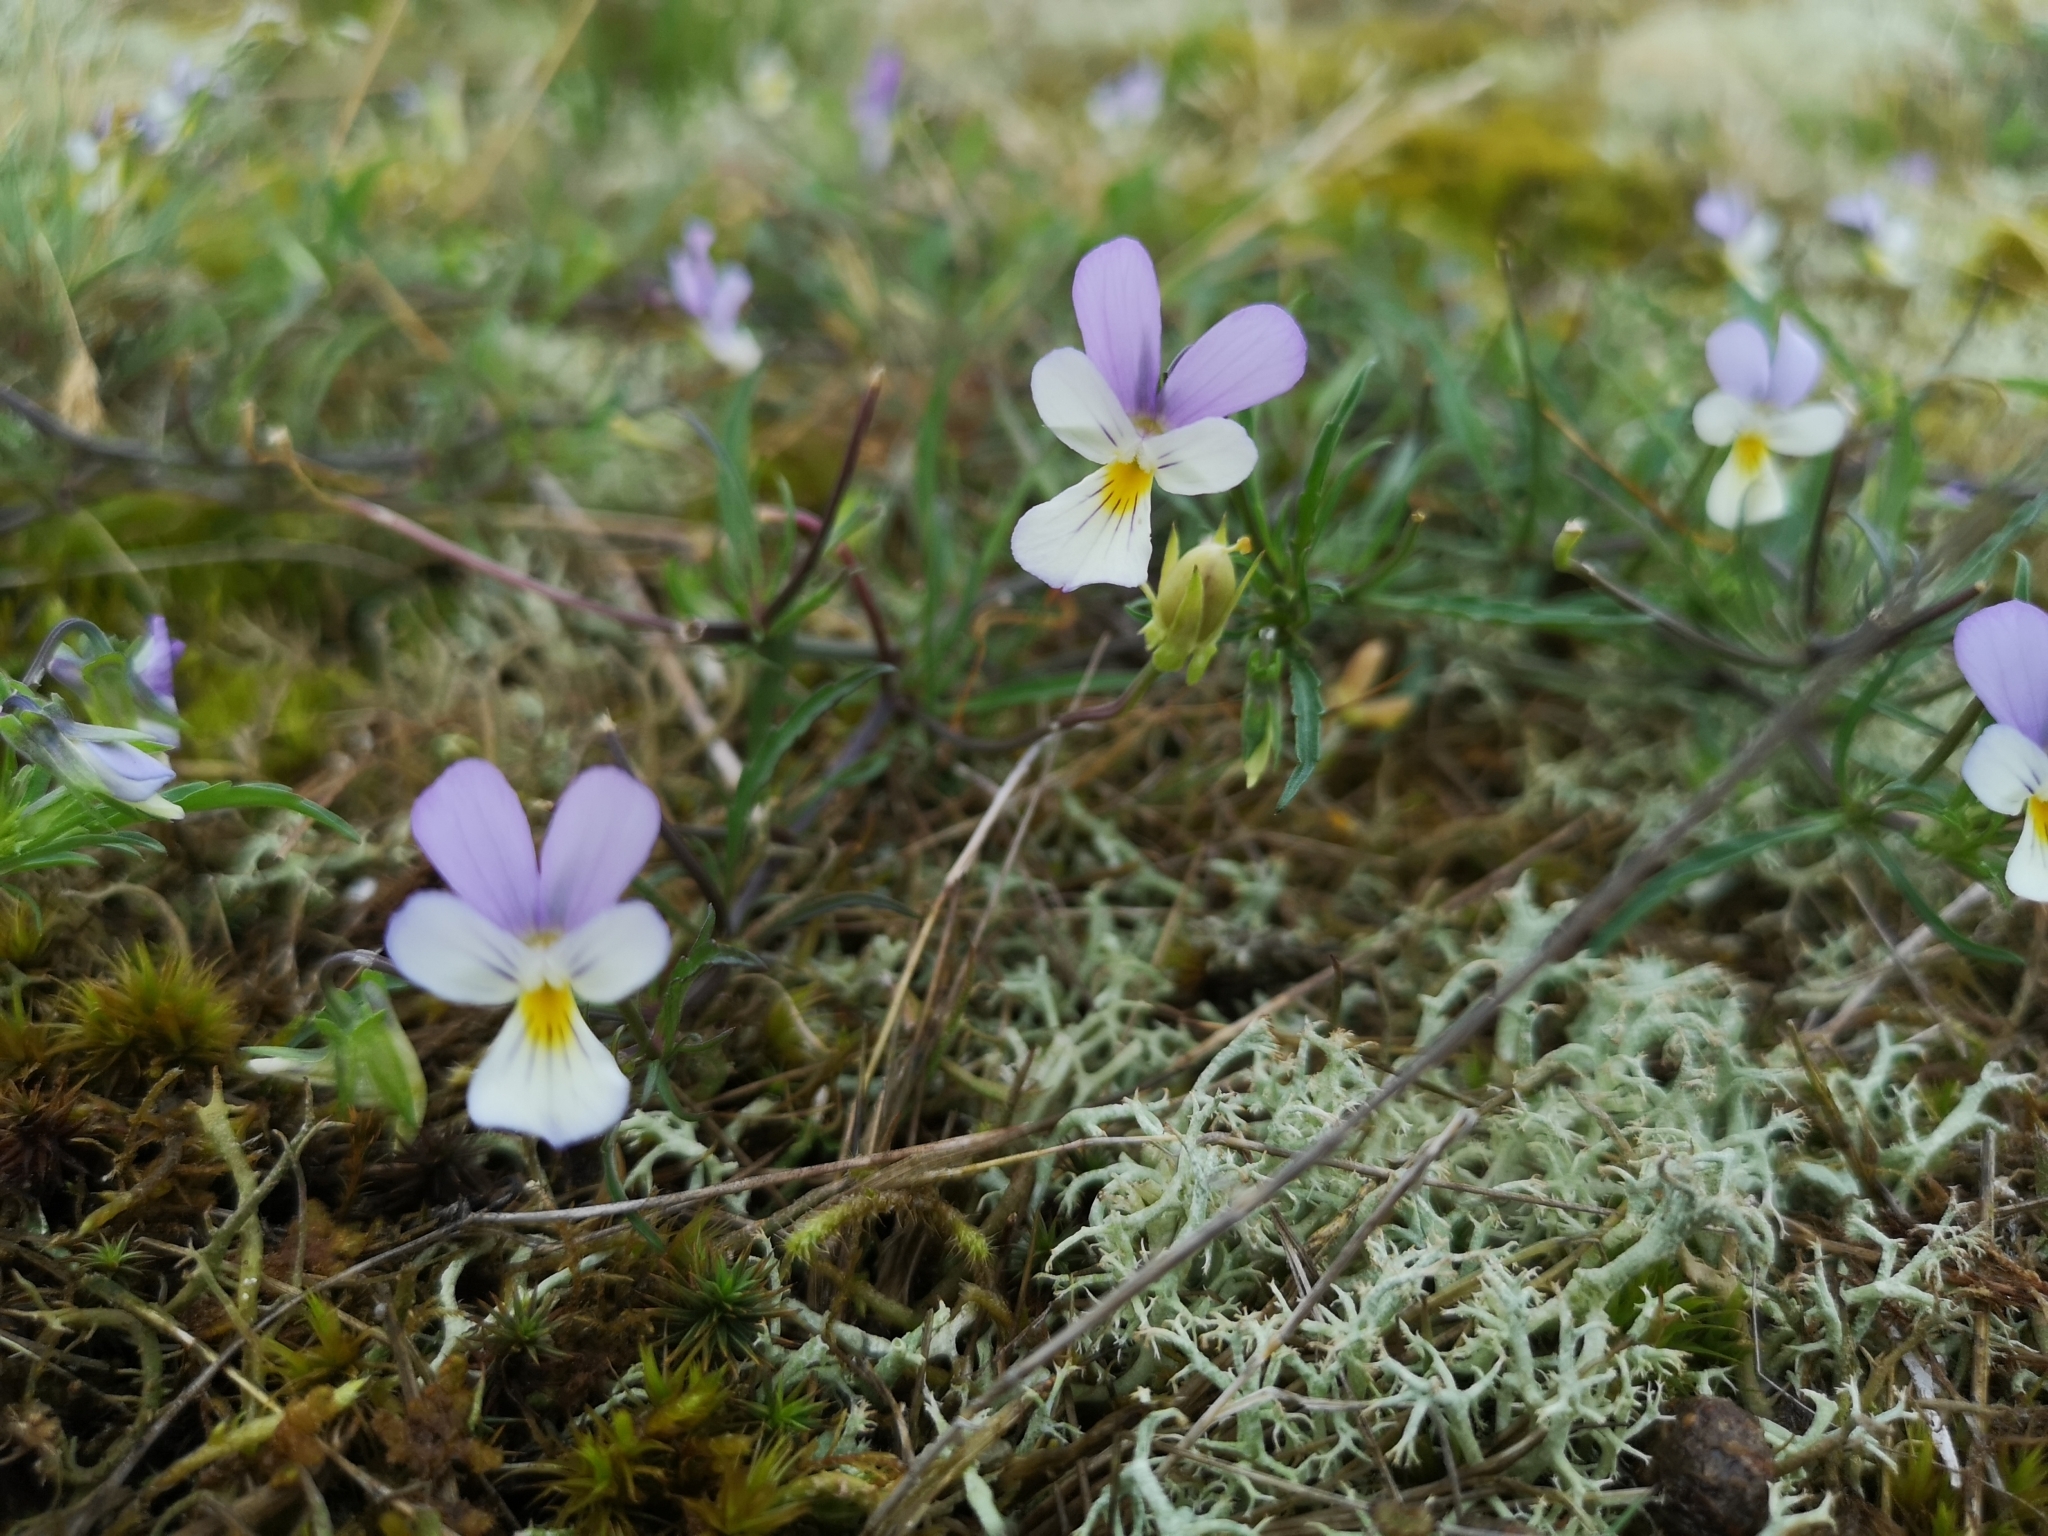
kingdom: Plantae
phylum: Tracheophyta
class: Magnoliopsida
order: Malpighiales
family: Violaceae
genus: Viola
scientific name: Viola tricolor
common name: Pansy
